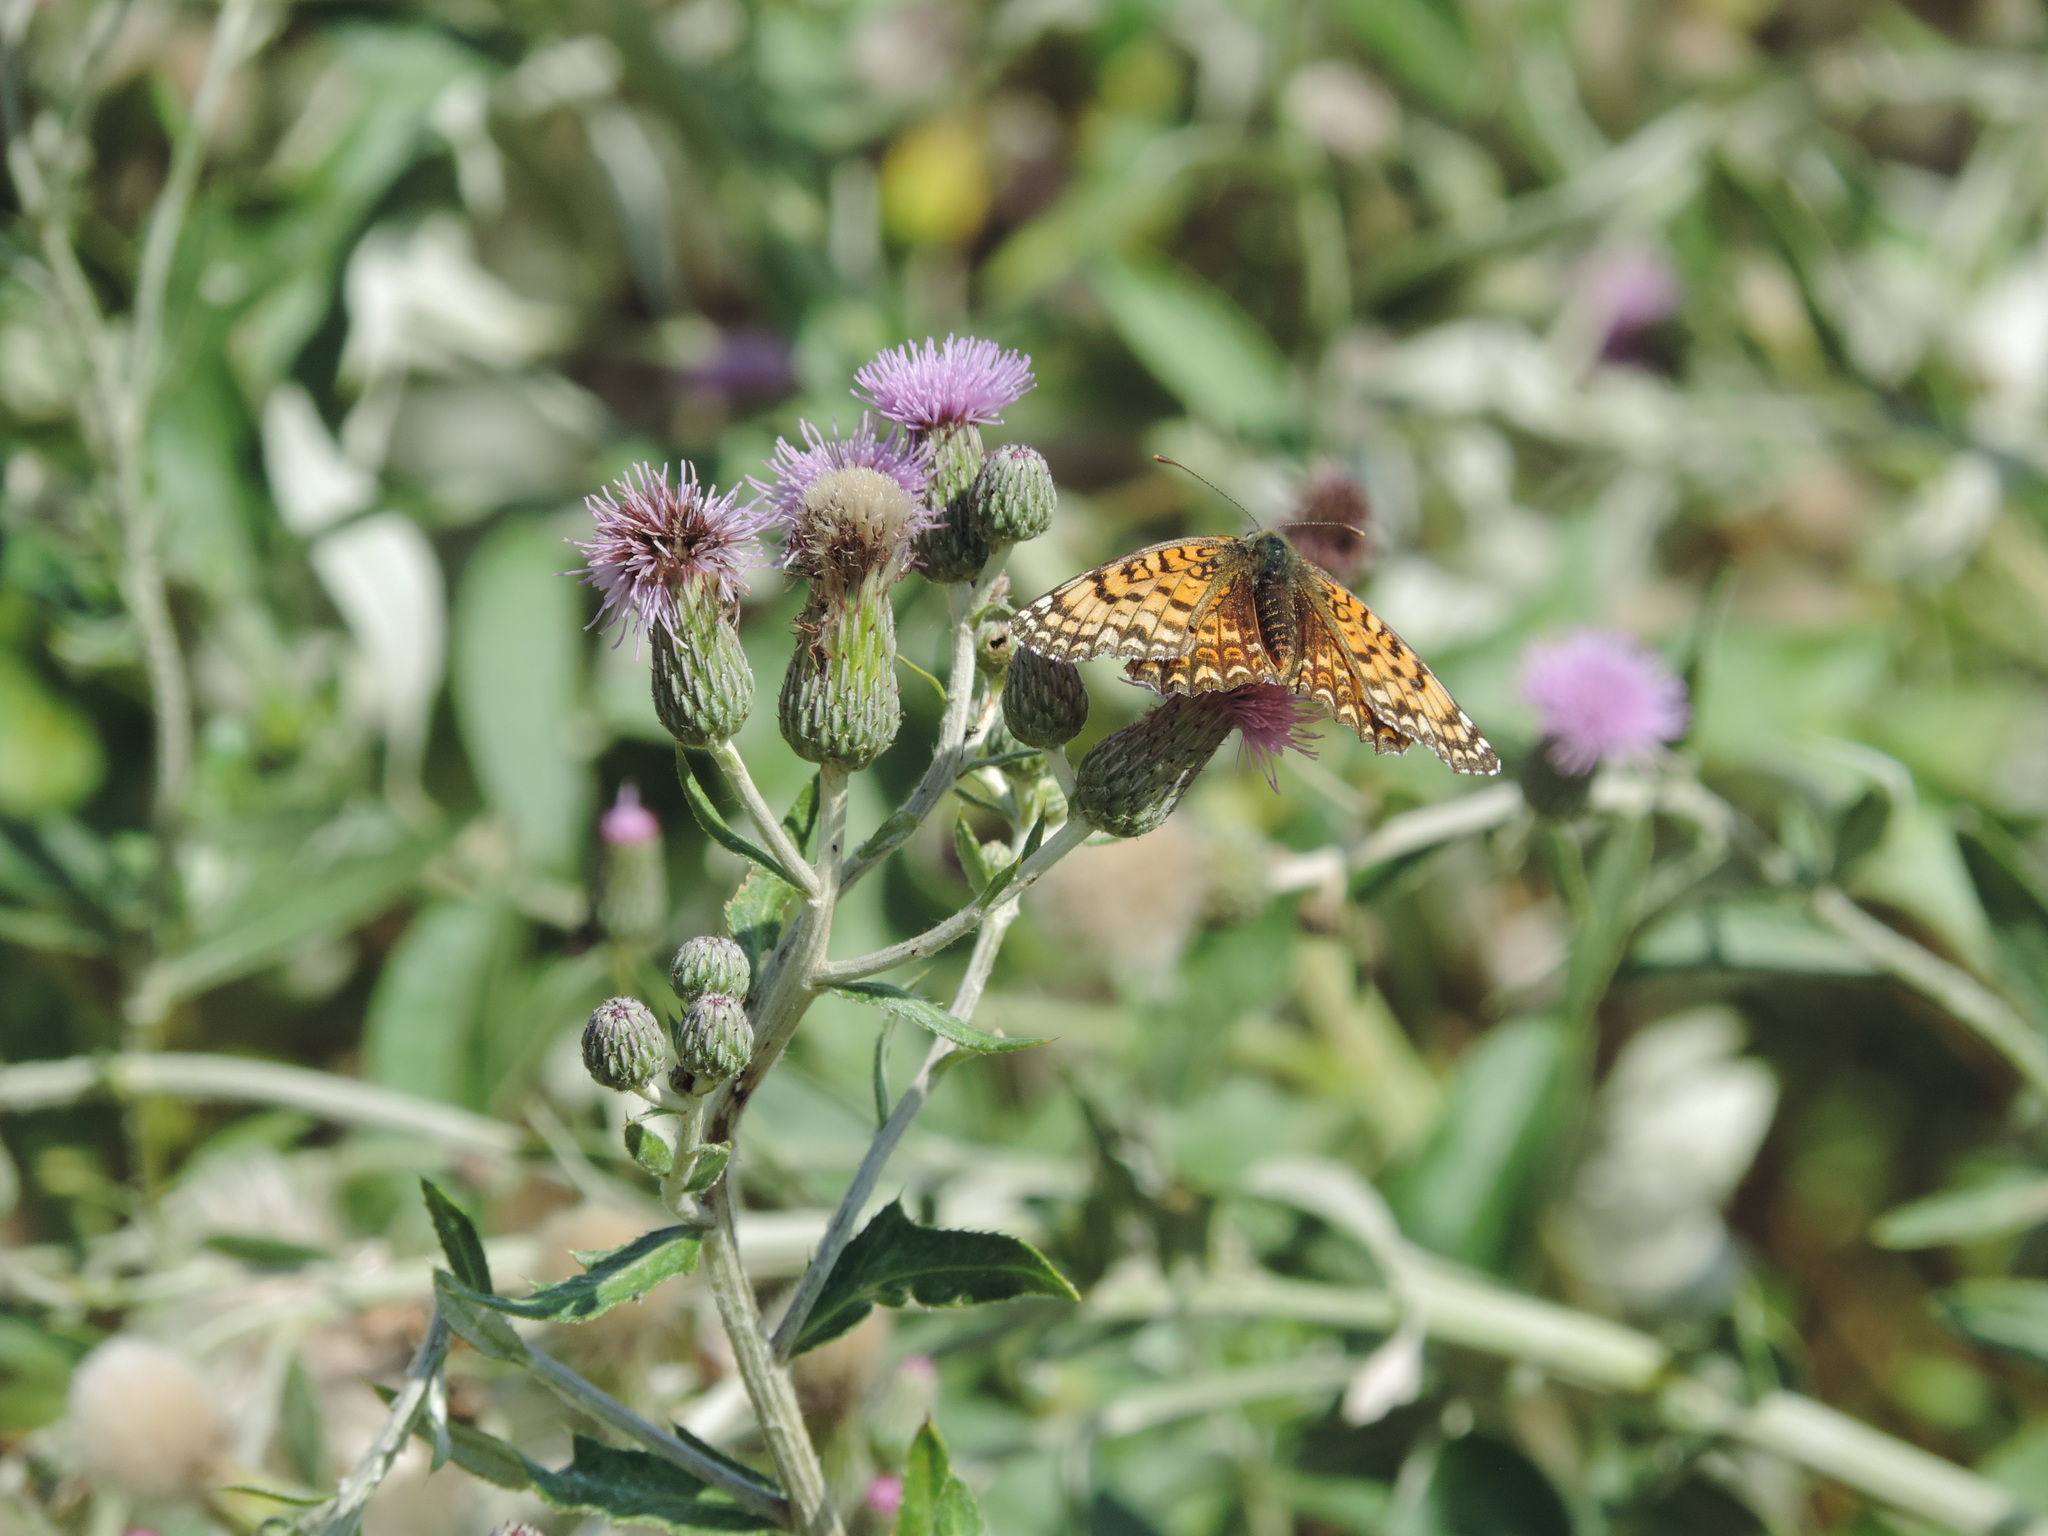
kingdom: Animalia
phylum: Arthropoda
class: Insecta
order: Lepidoptera
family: Nymphalidae
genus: Melitaea
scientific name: Melitaea phoebe
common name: Knapweed fritillary
